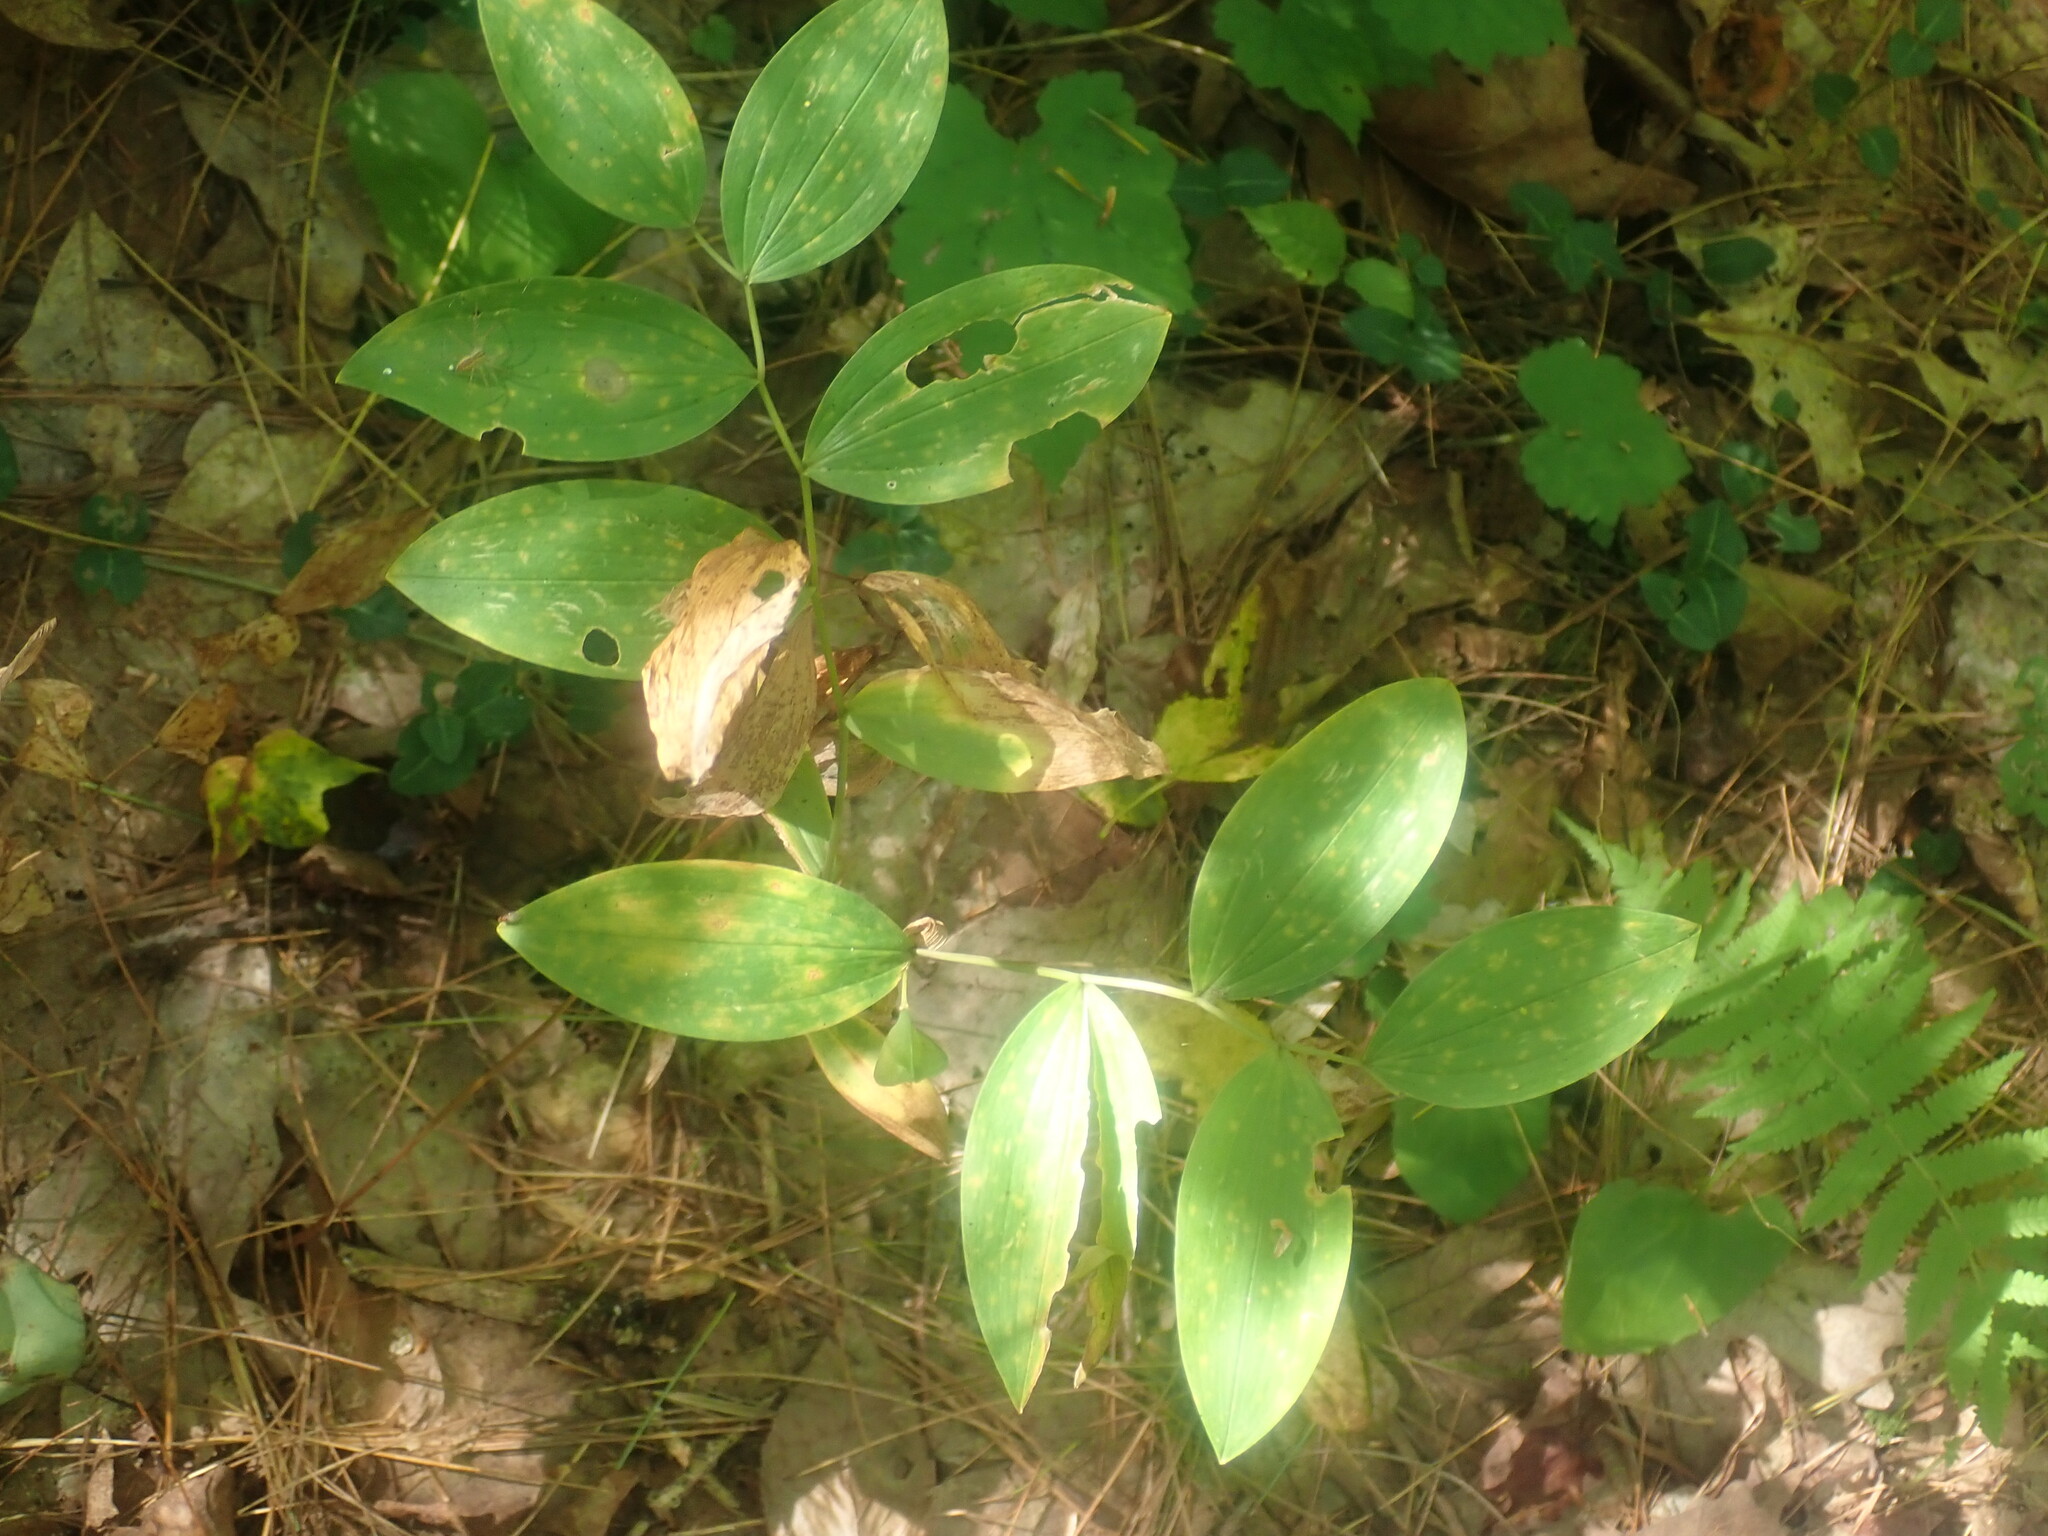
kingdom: Plantae
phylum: Tracheophyta
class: Liliopsida
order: Liliales
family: Colchicaceae
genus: Uvularia
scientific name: Uvularia sessilifolia
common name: Straw-lily
